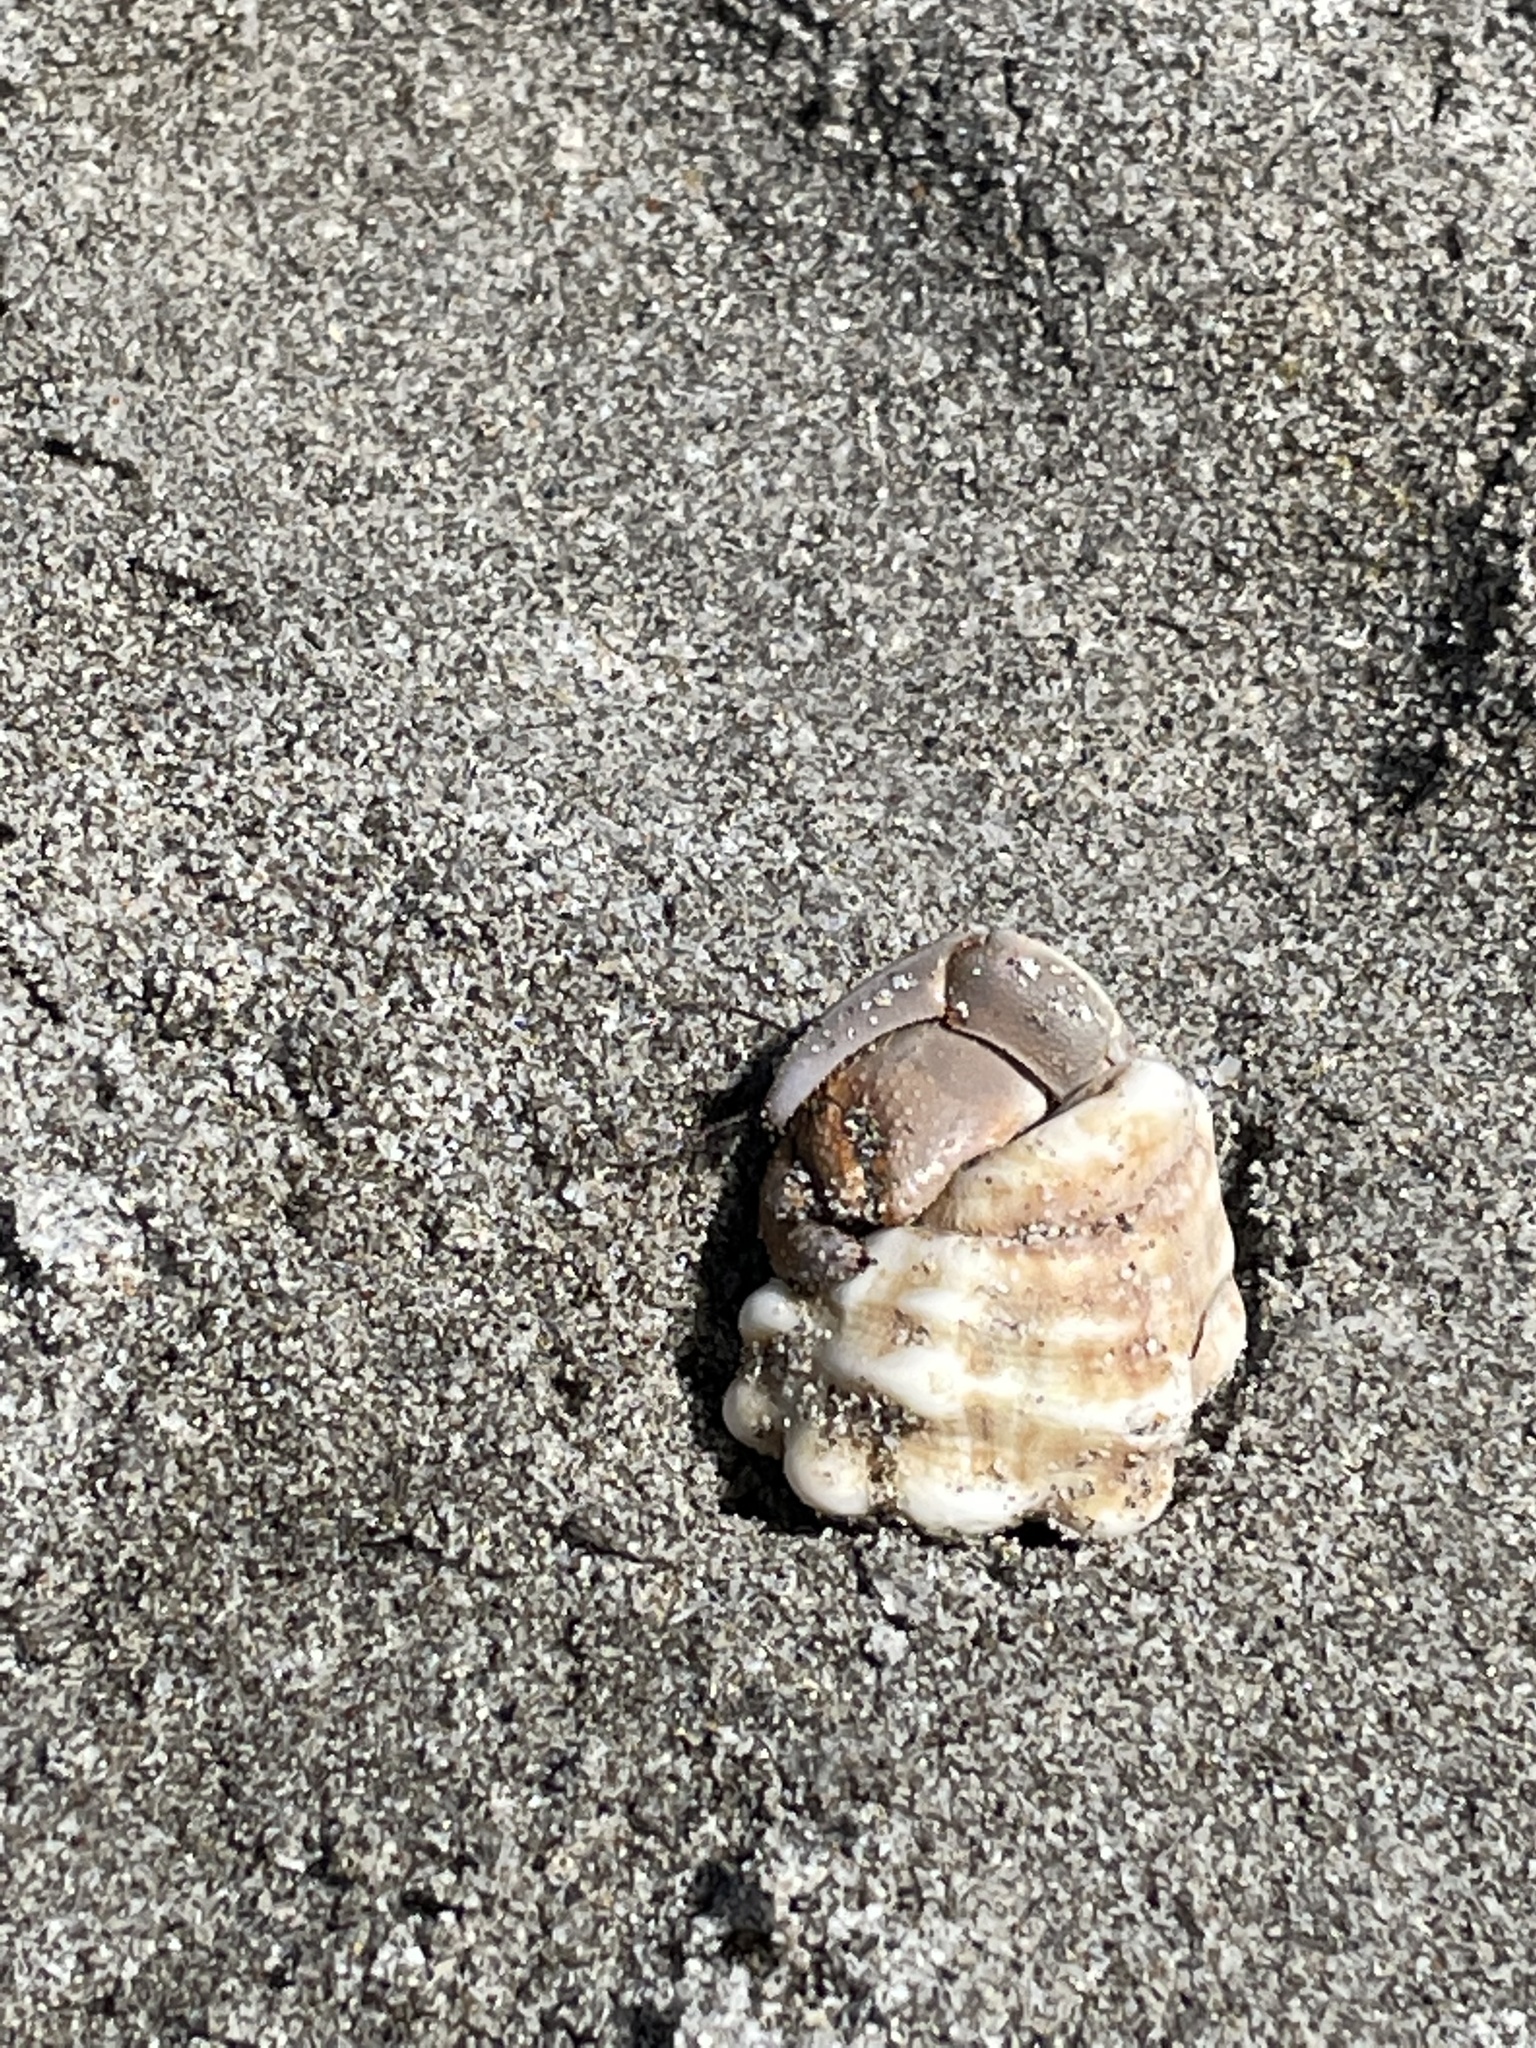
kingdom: Animalia
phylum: Arthropoda
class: Malacostraca
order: Decapoda
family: Coenobitidae
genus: Coenobita
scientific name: Coenobita compressus
